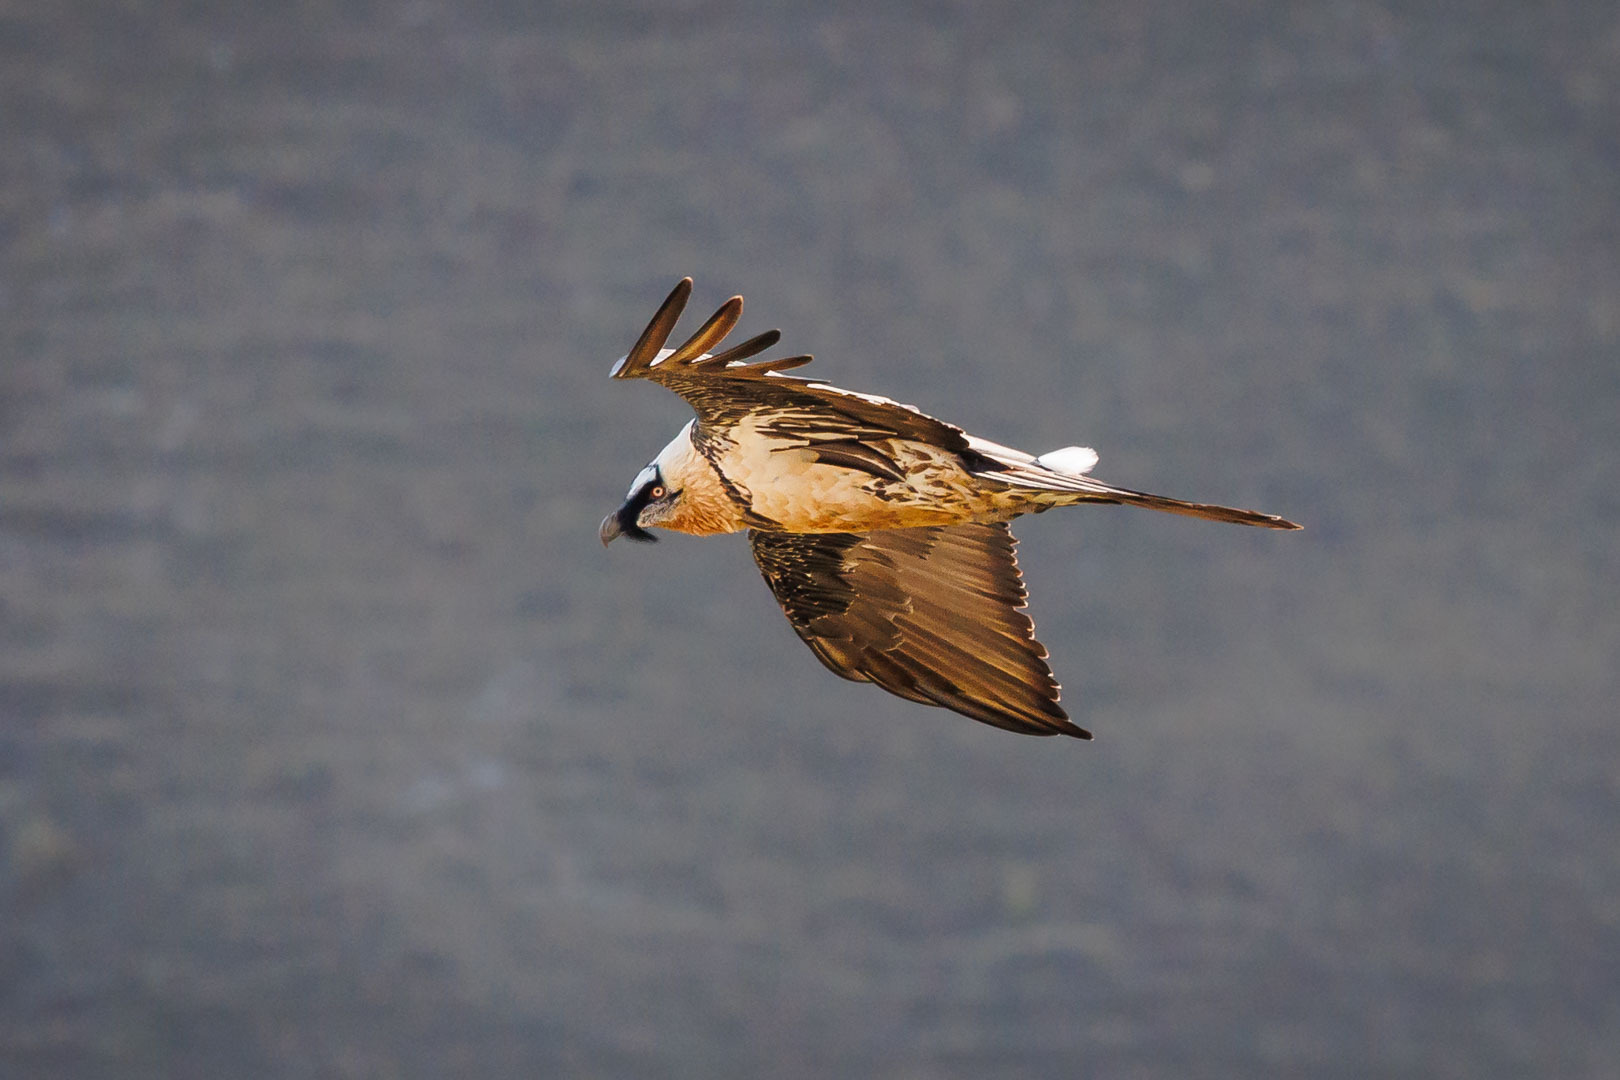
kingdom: Animalia
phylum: Chordata
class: Aves
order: Accipitriformes
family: Accipitridae
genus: Gypaetus
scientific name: Gypaetus barbatus
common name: Bearded vulture
